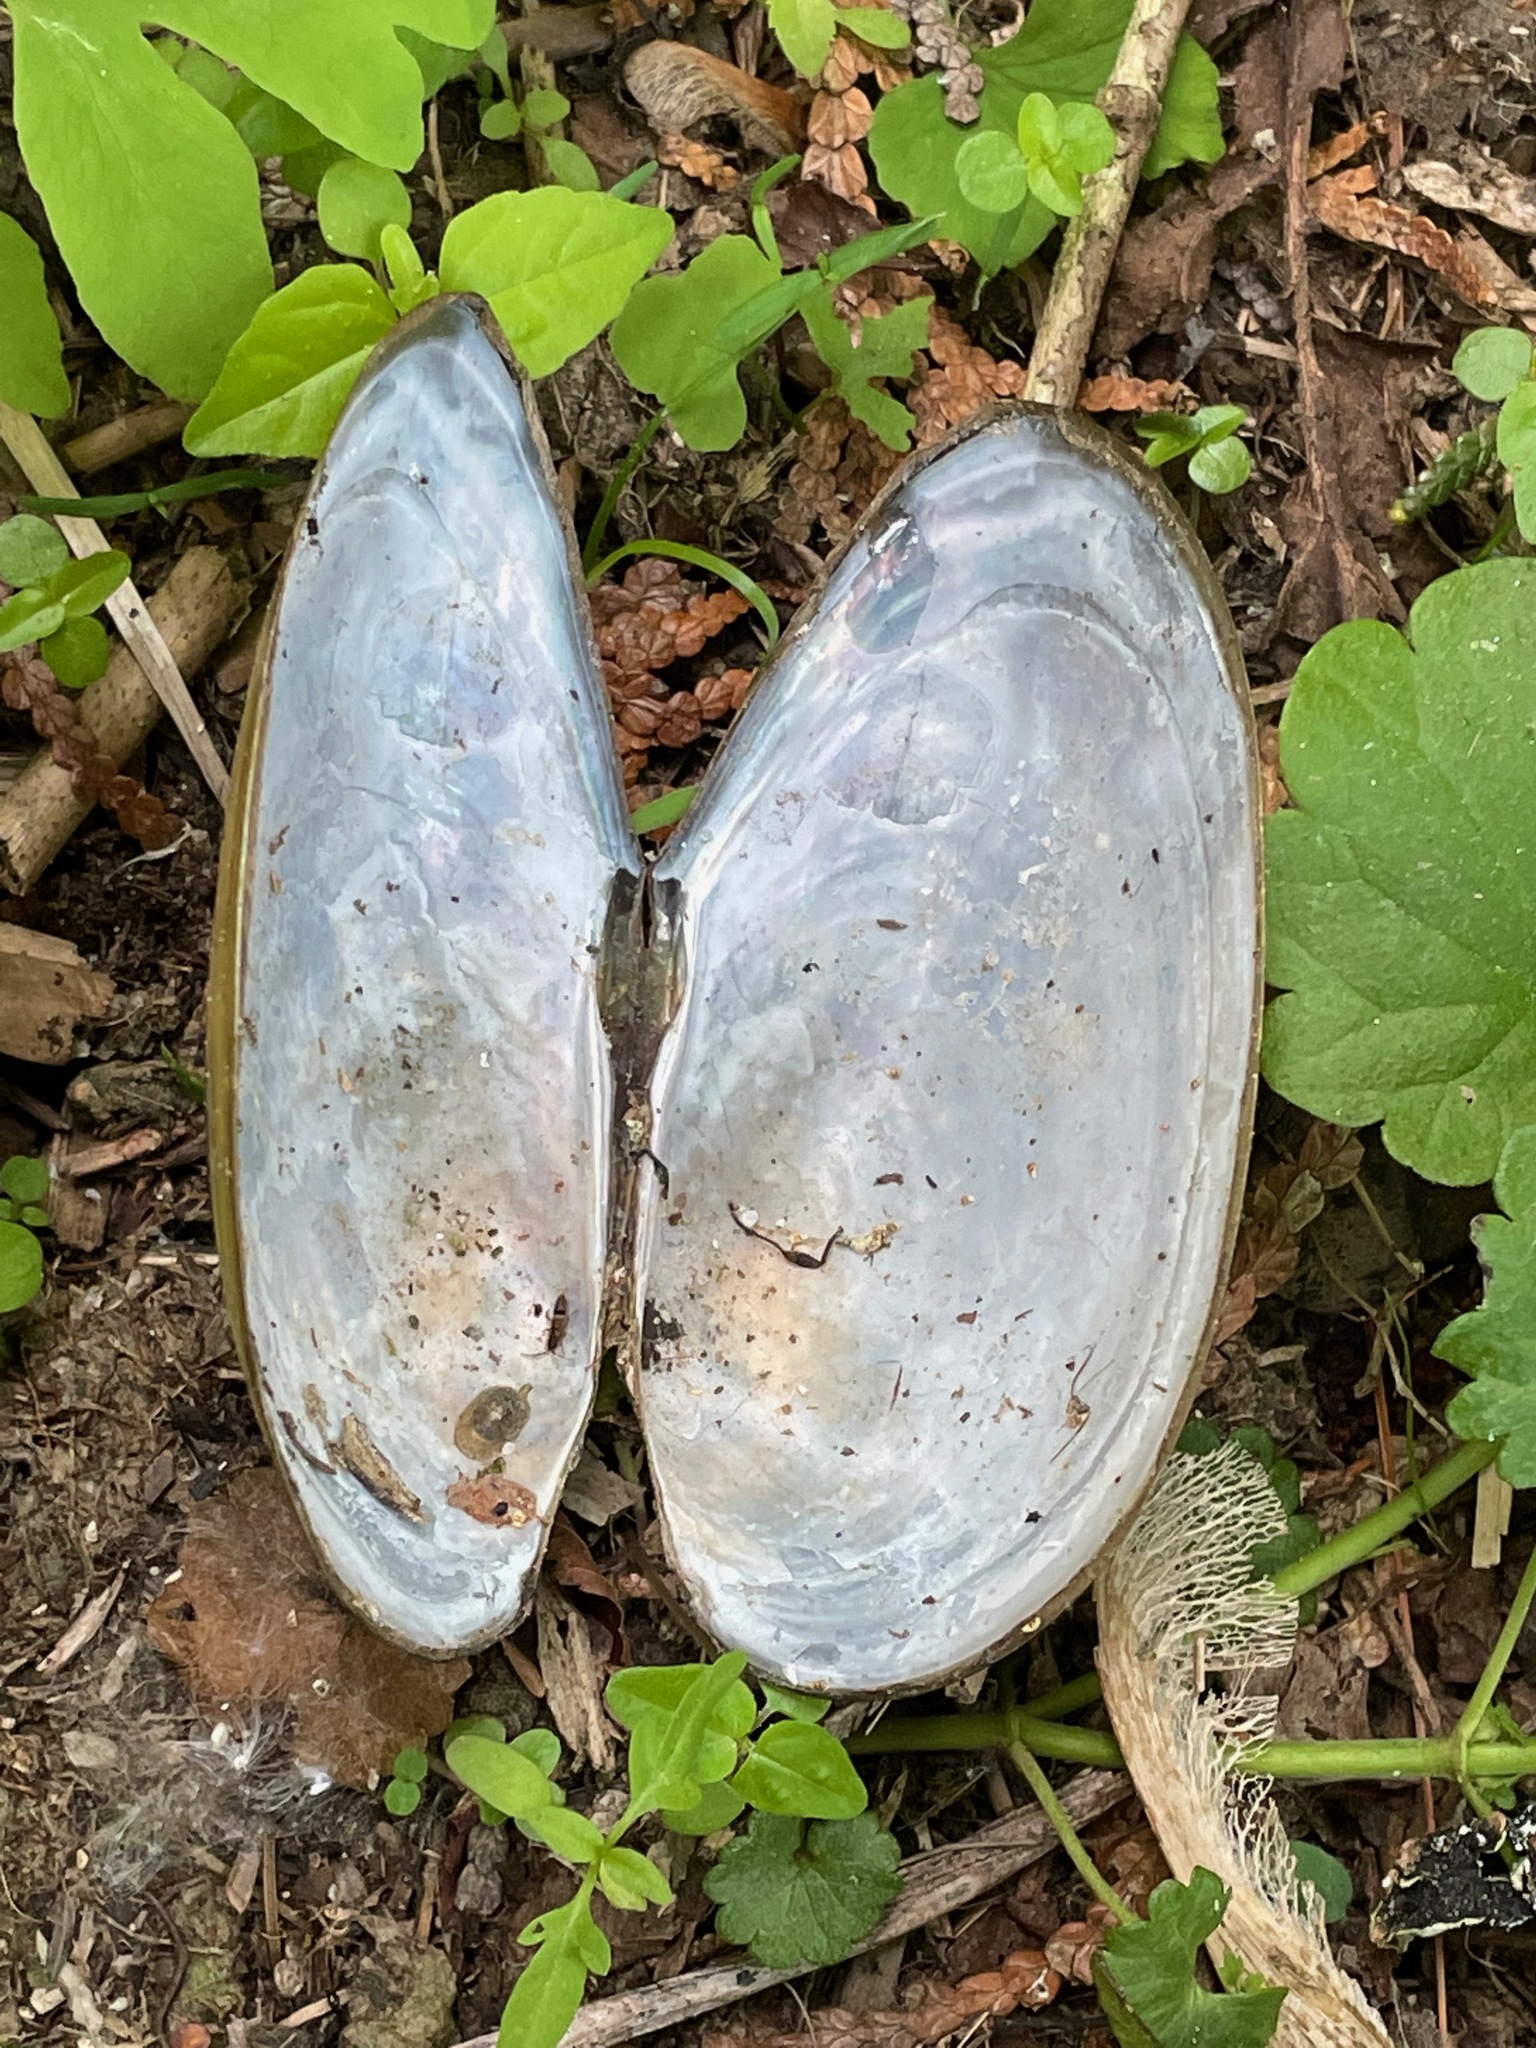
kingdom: Animalia
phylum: Mollusca
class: Bivalvia
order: Unionida
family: Unionidae
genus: Pyganodon
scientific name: Pyganodon cataracta
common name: Eastern floater
